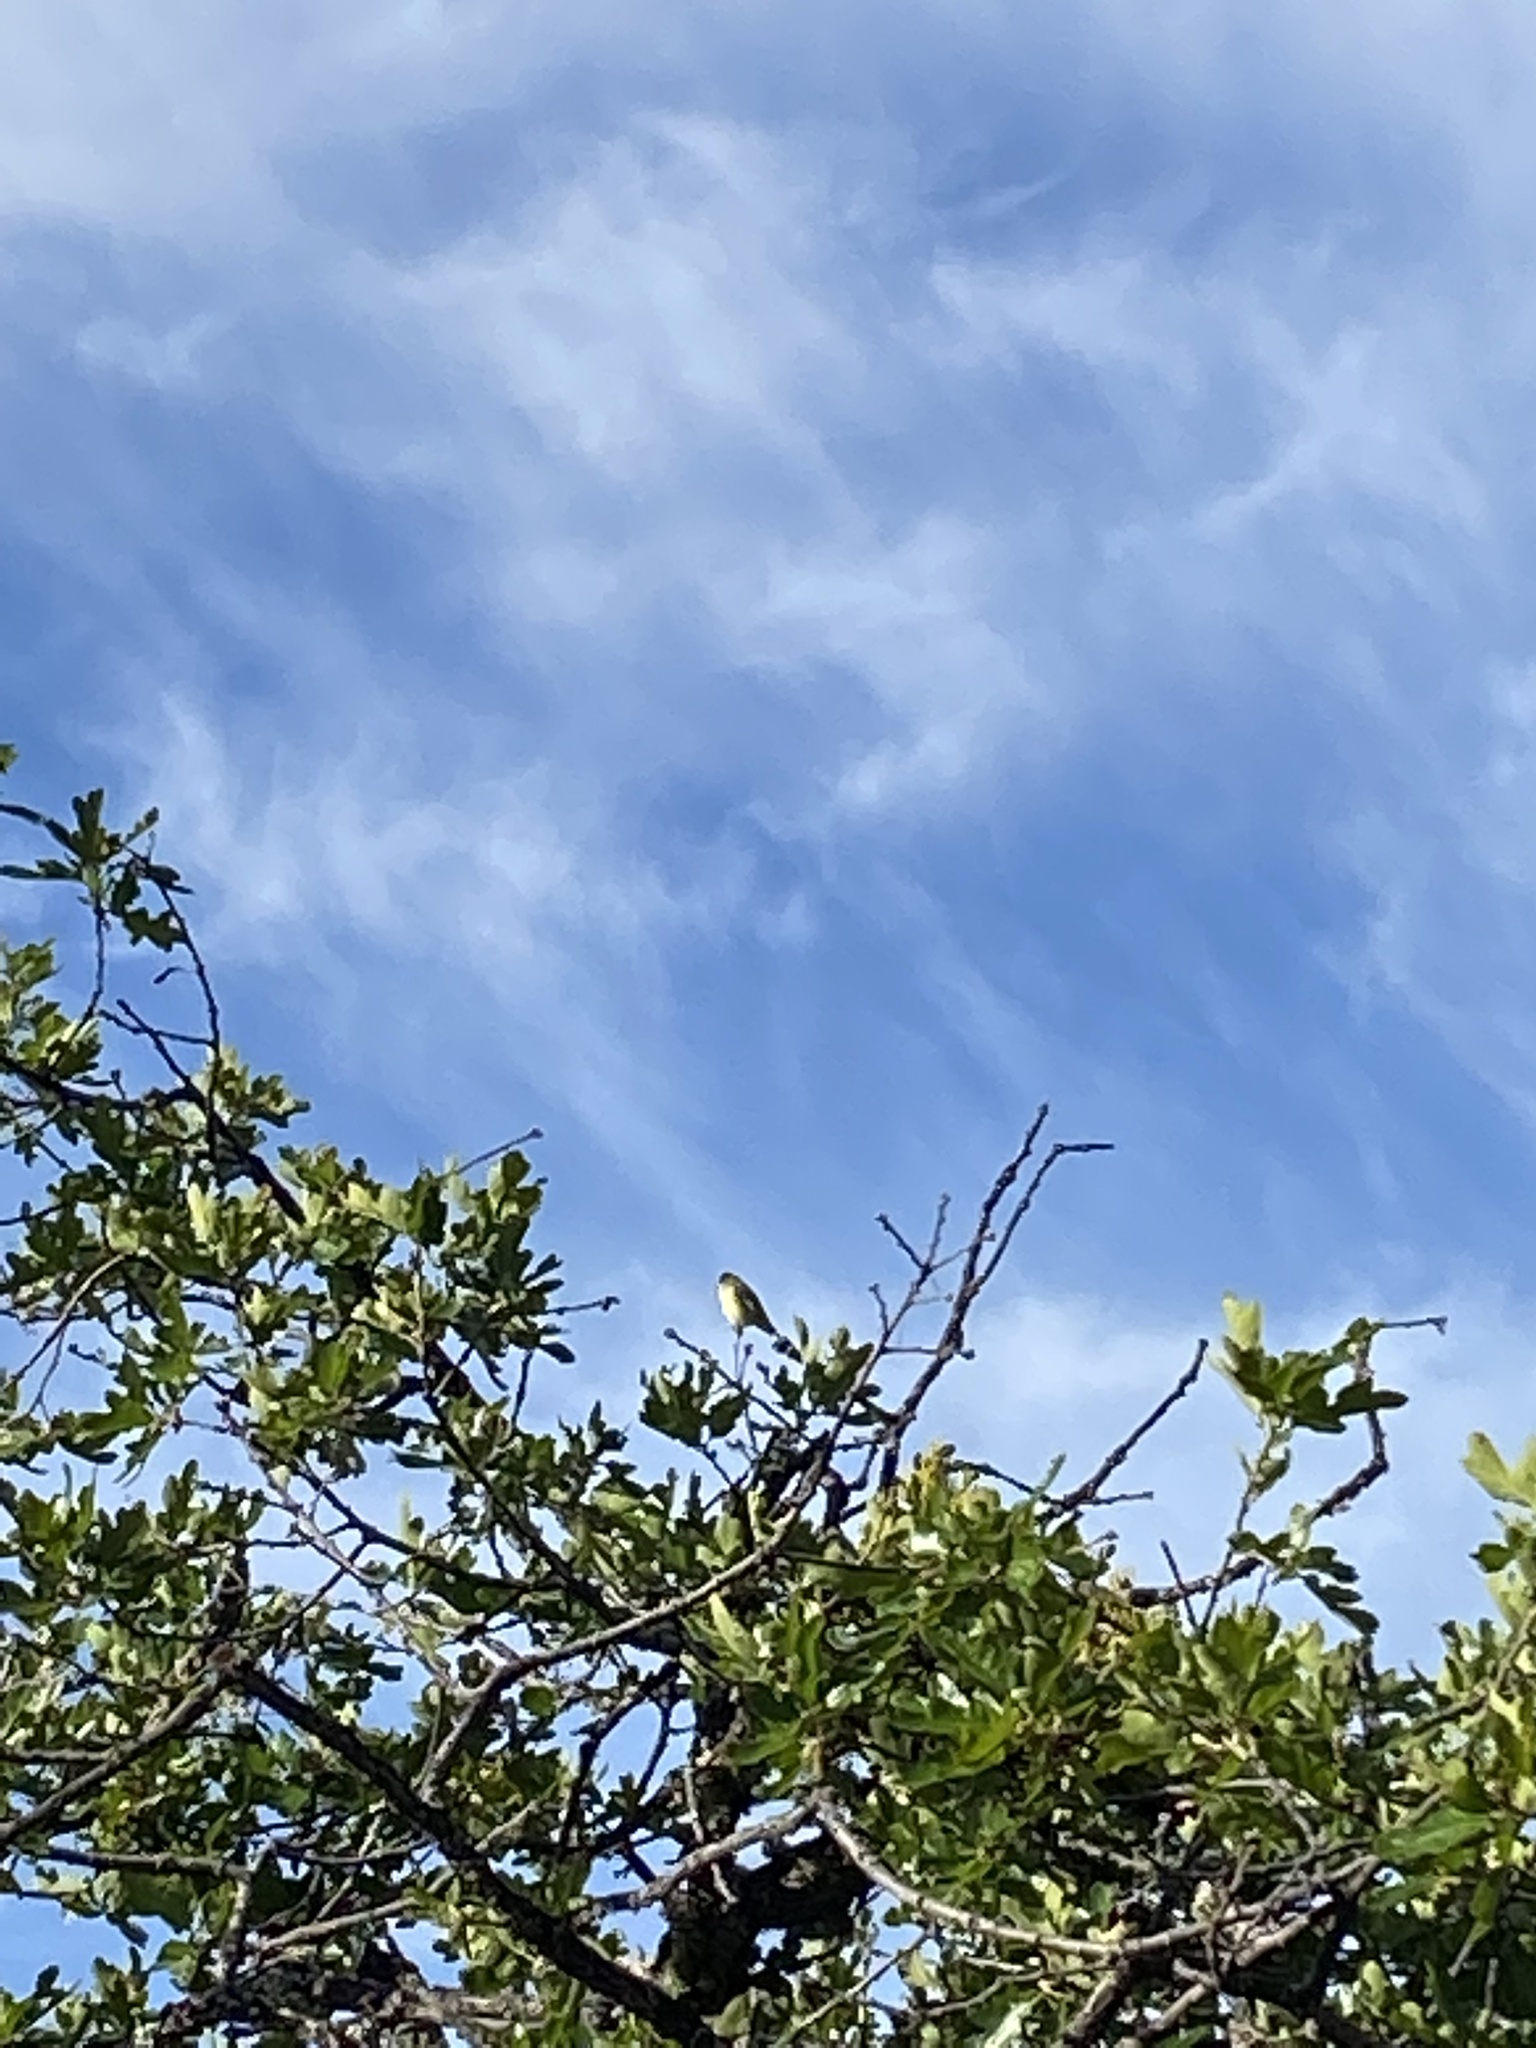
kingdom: Animalia
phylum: Chordata
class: Aves
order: Passeriformes
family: Fringillidae
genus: Spinus
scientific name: Spinus psaltria
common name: Lesser goldfinch
